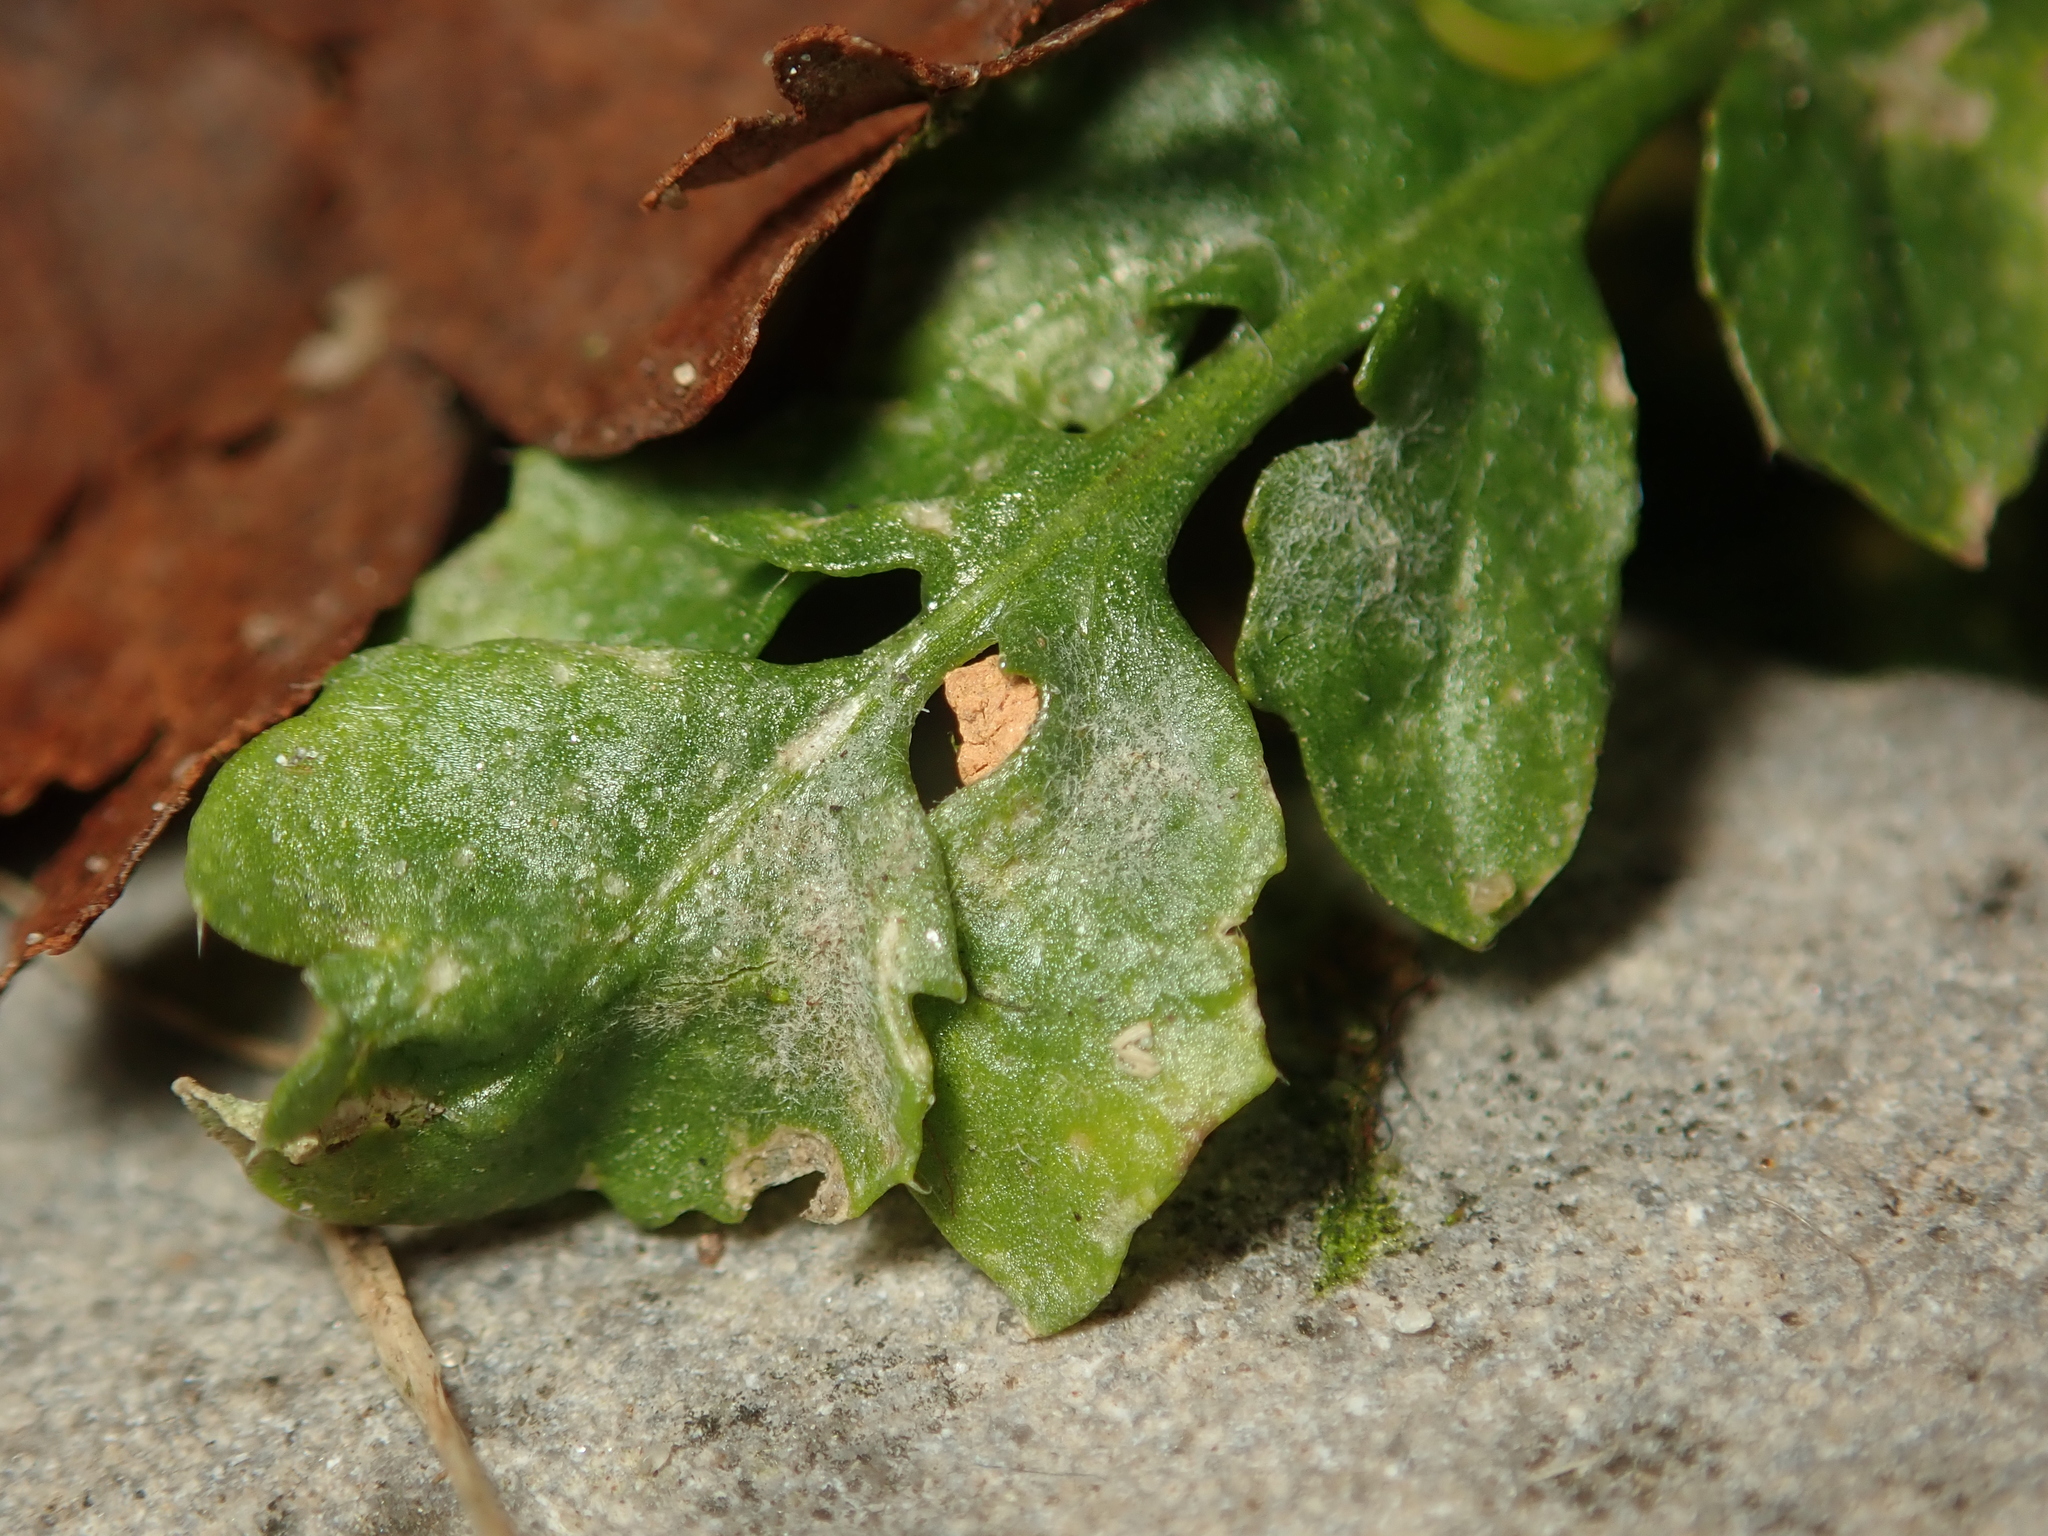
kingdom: Fungi
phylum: Ascomycota
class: Leotiomycetes
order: Helotiales
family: Erysiphaceae
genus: Erysiphe
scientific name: Erysiphe cruciferarum
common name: Brassica powdery mildew
